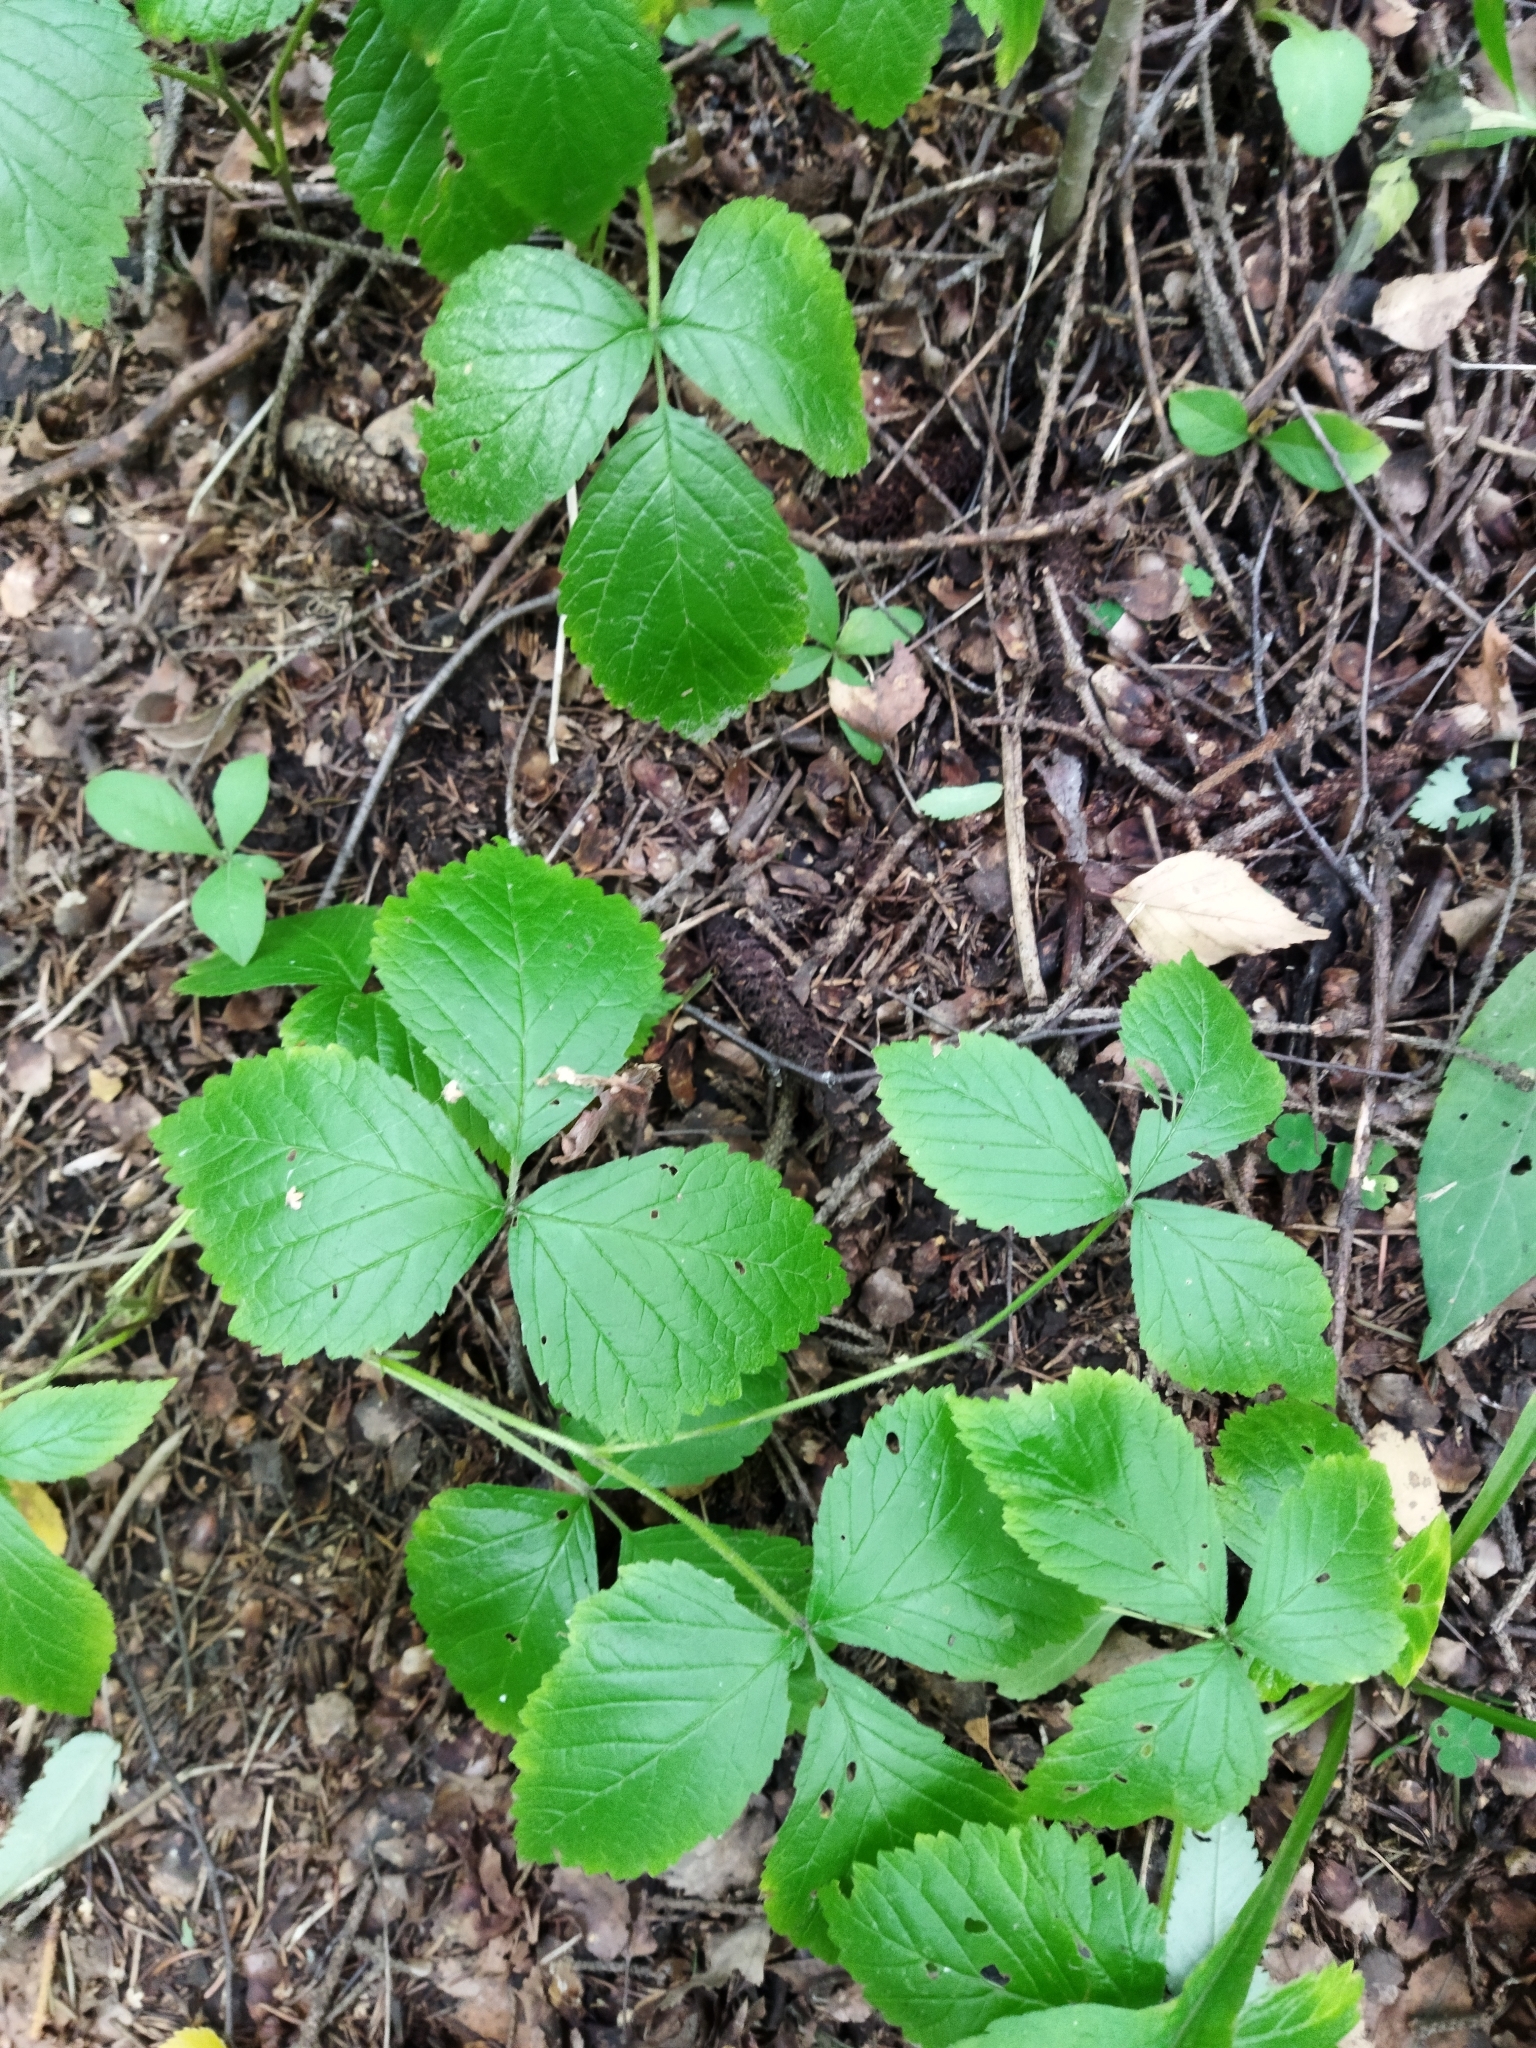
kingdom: Plantae
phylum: Tracheophyta
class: Magnoliopsida
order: Rosales
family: Rosaceae
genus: Rubus
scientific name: Rubus saxatilis
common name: Stone bramble
